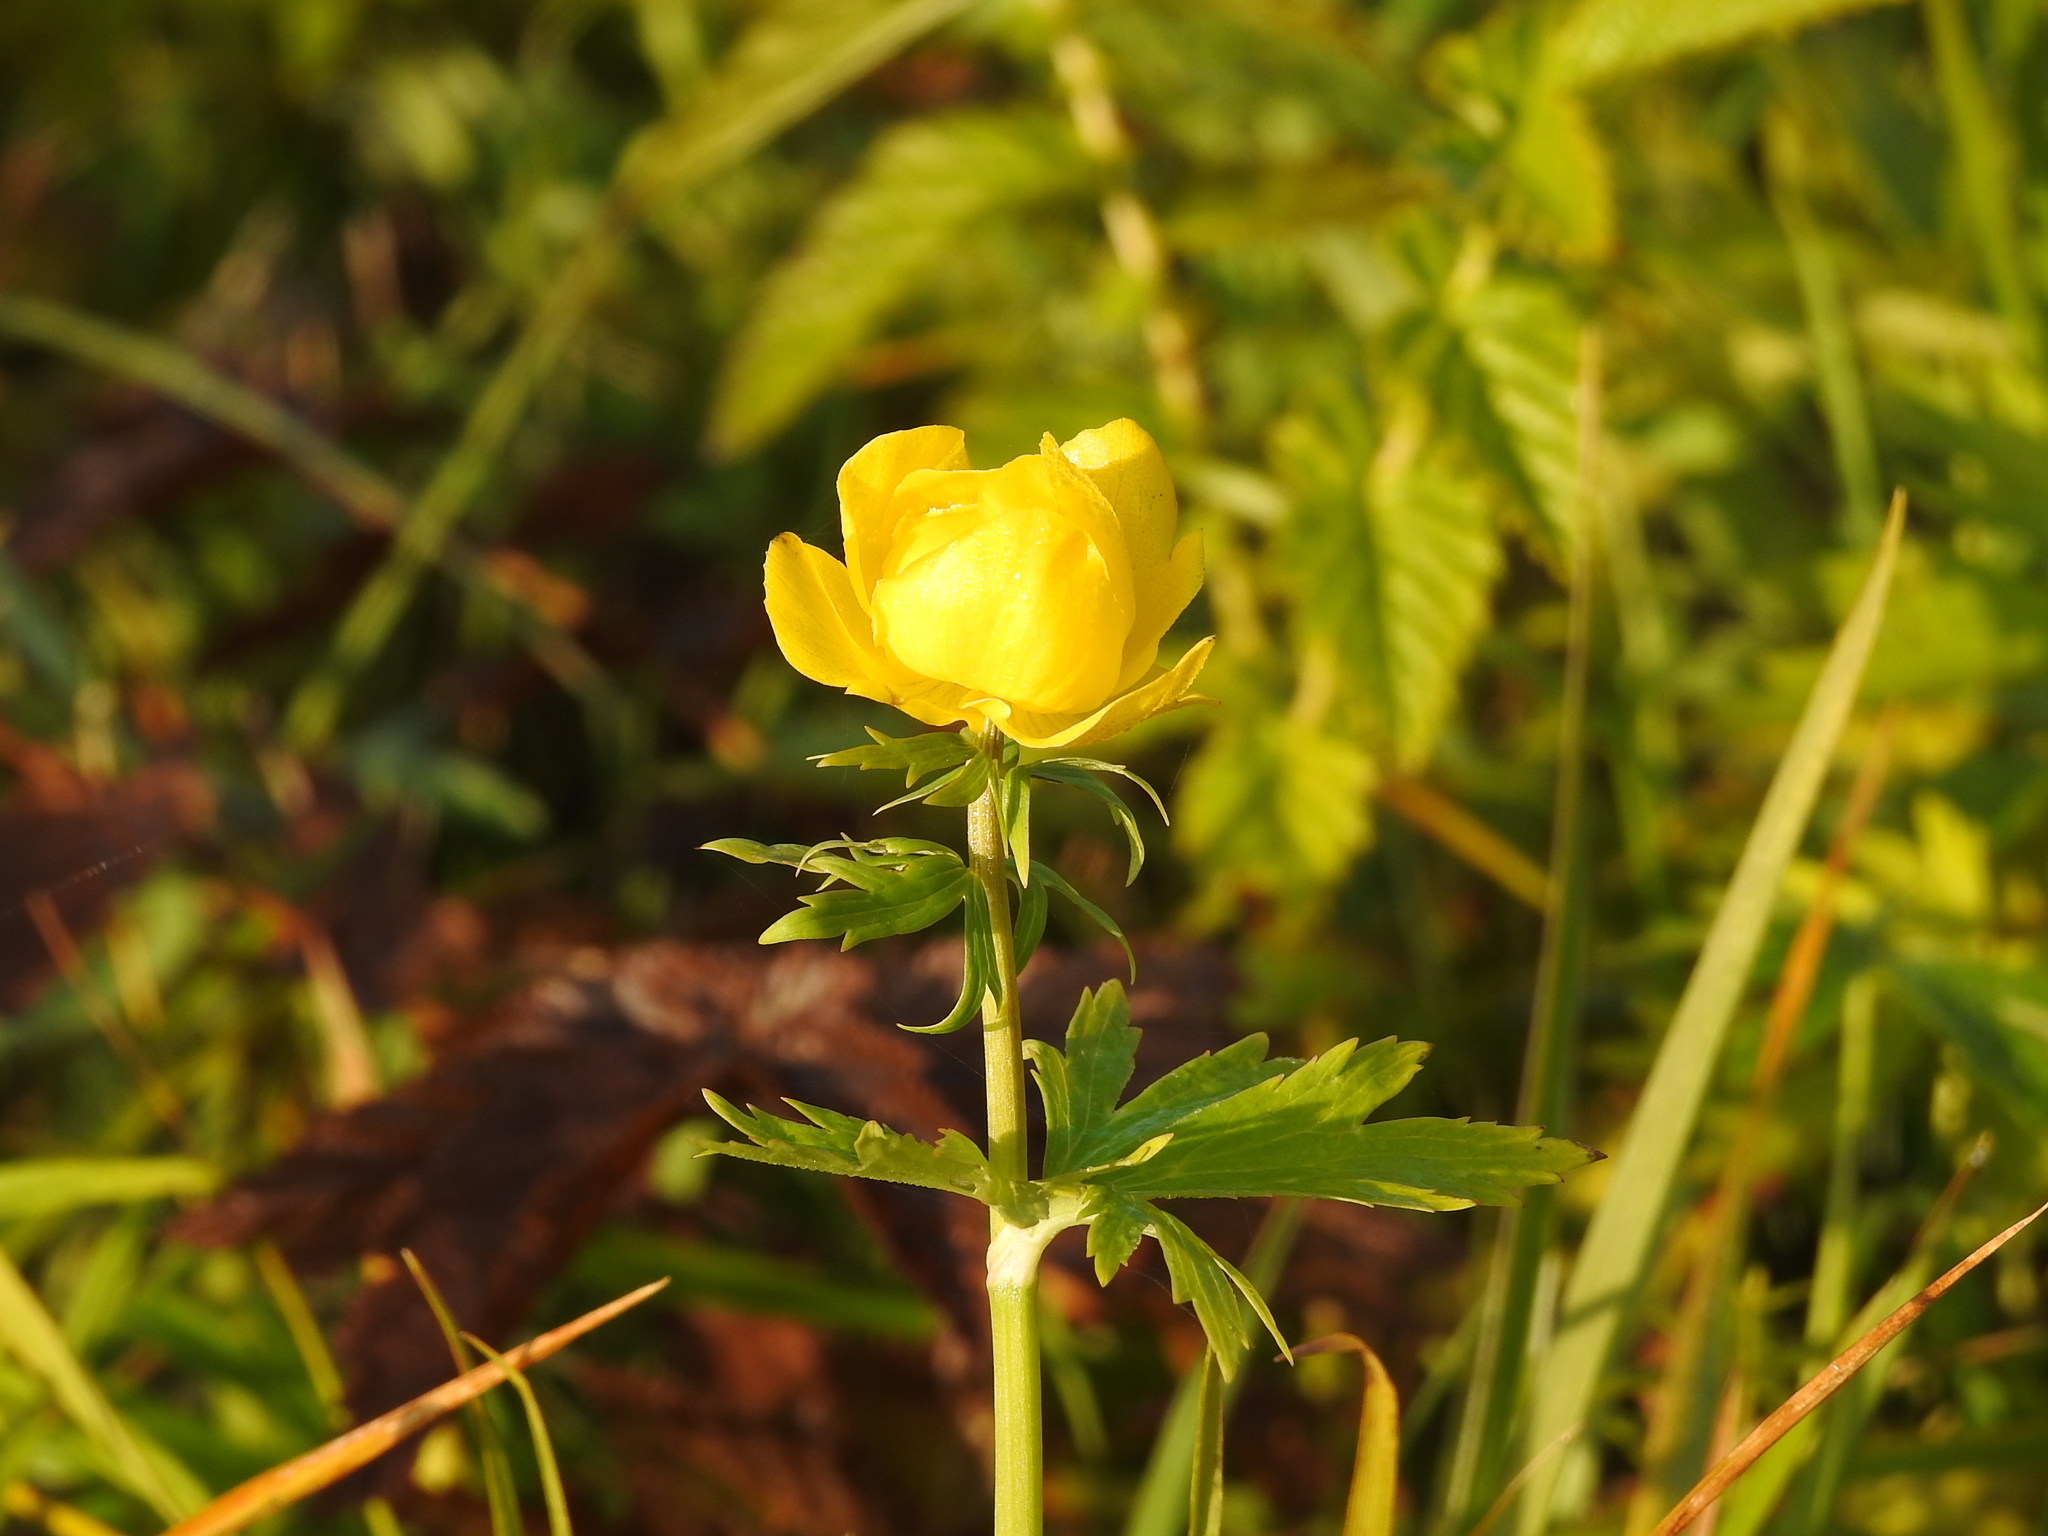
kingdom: Plantae
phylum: Tracheophyta
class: Magnoliopsida
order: Ranunculales
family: Ranunculaceae
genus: Trollius
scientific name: Trollius europaeus
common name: European globeflower
